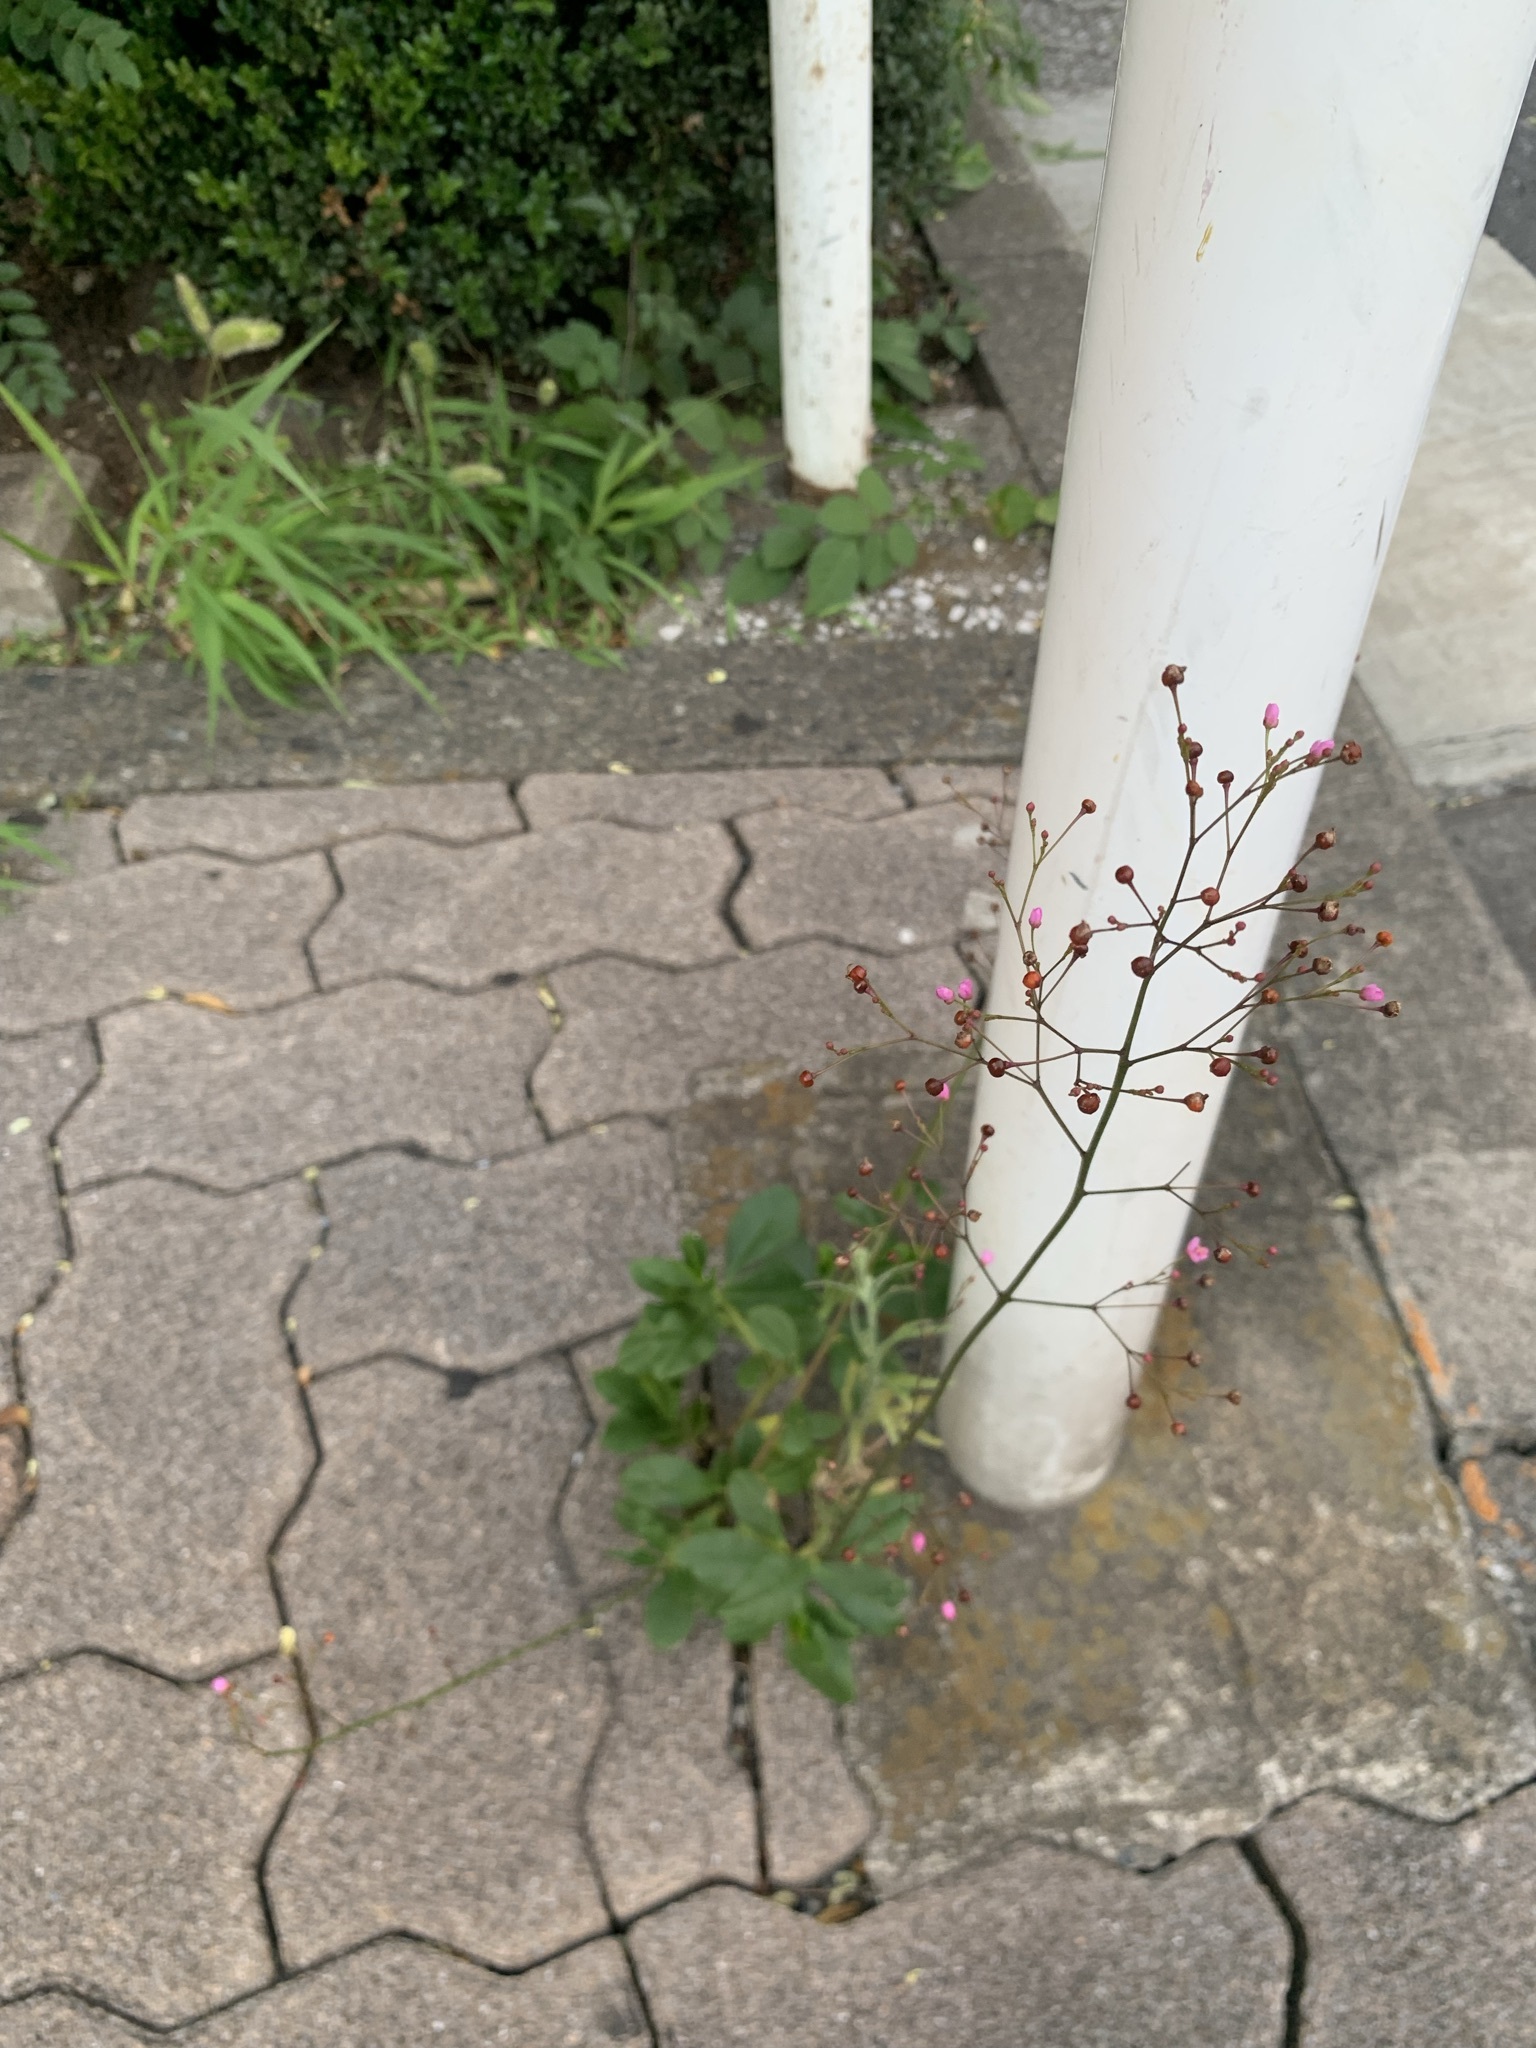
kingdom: Plantae
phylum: Tracheophyta
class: Magnoliopsida
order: Caryophyllales
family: Talinaceae
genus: Talinum
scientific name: Talinum paniculatum
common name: Jewels of opar
